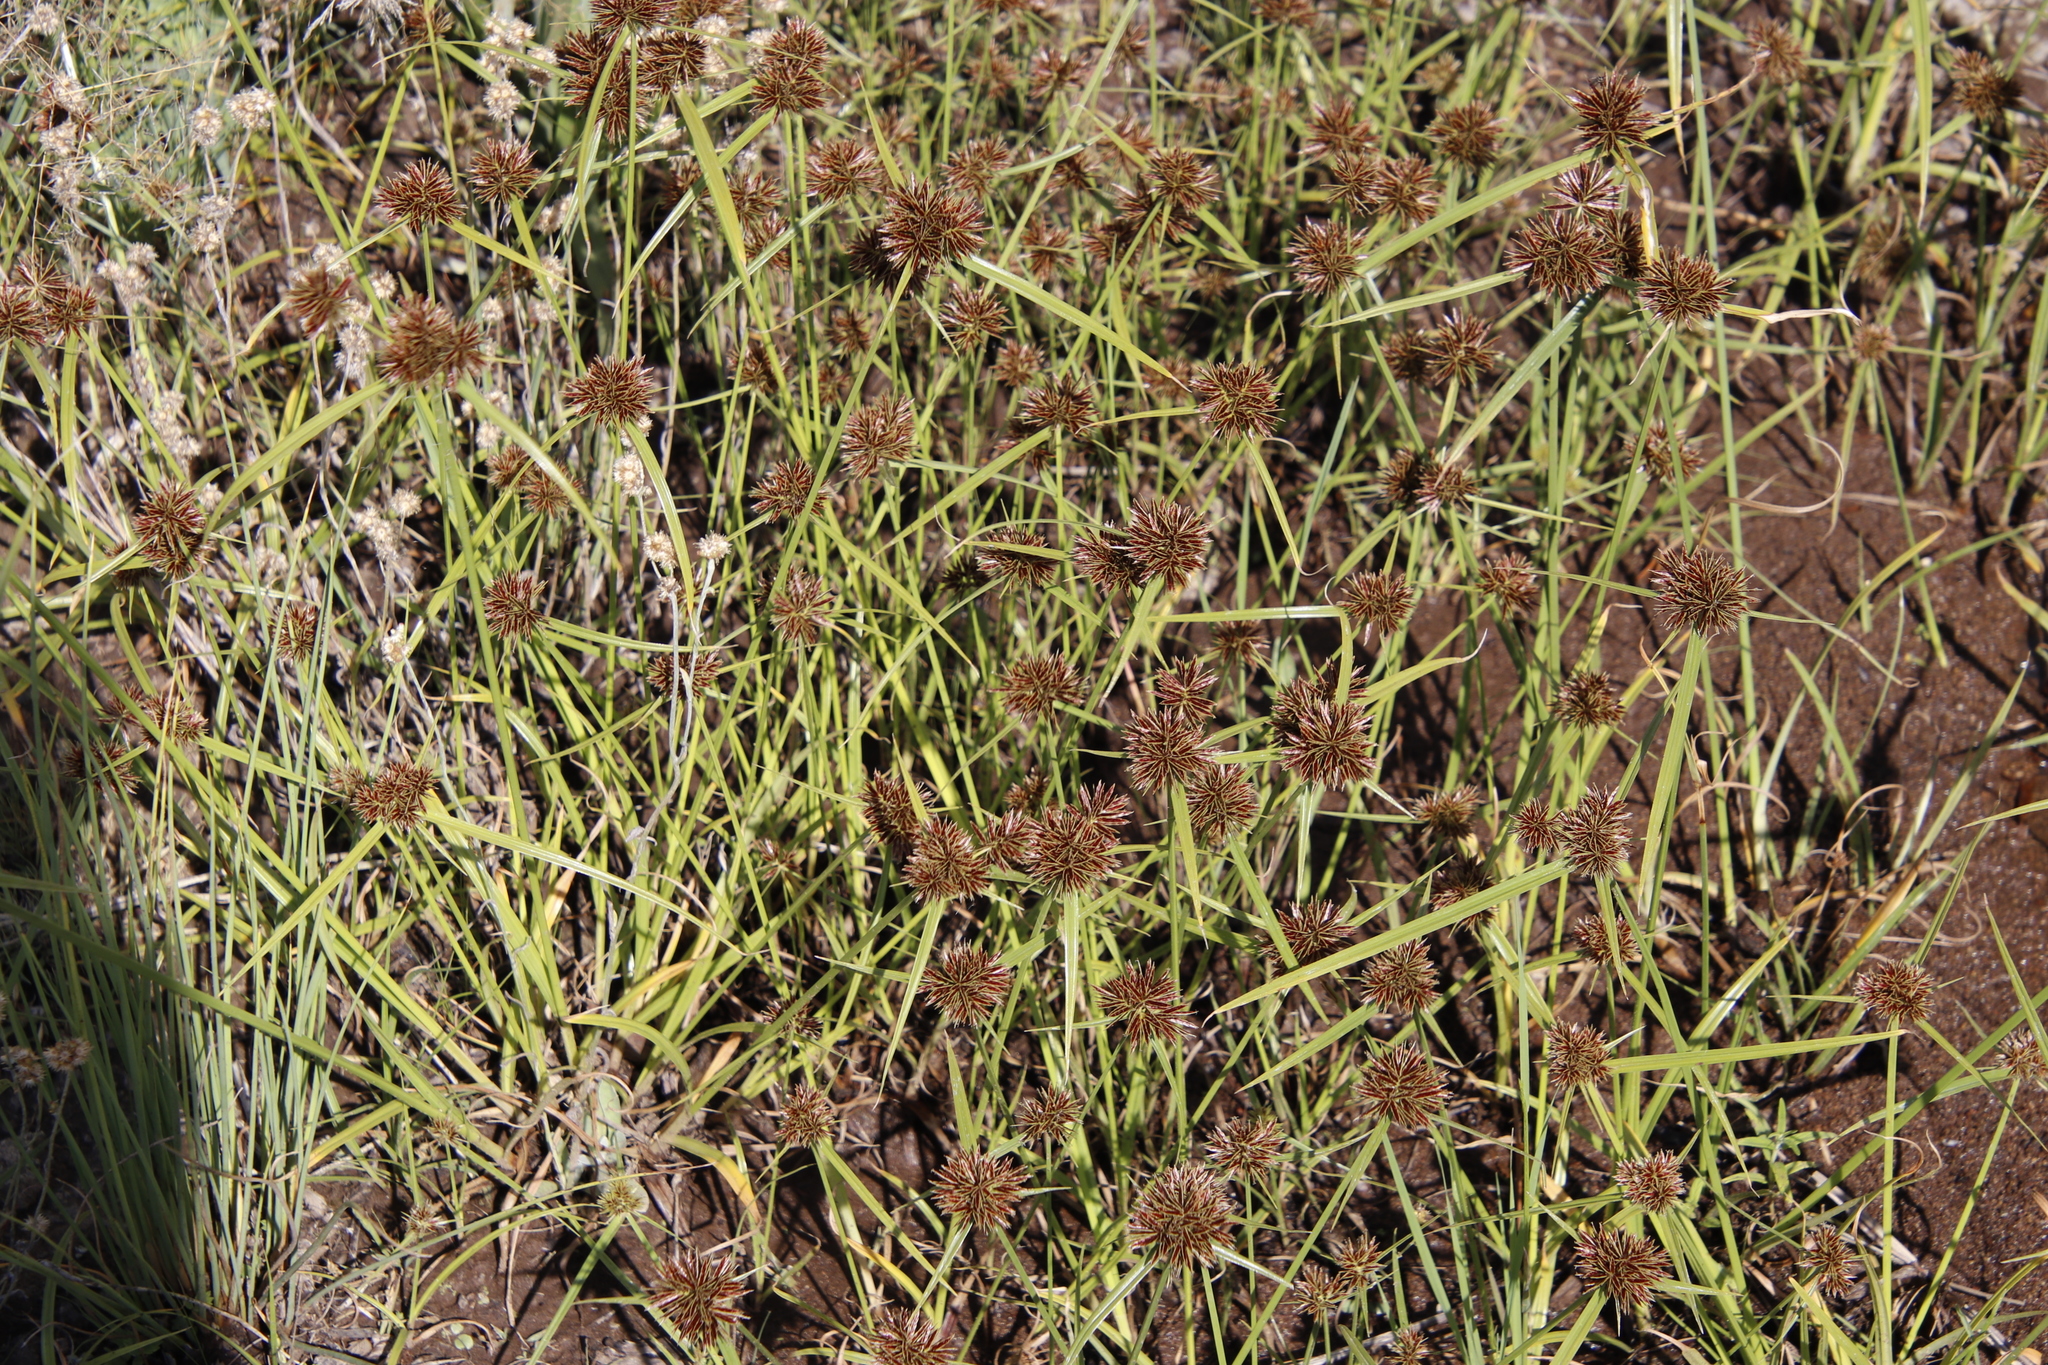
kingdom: Plantae
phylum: Tracheophyta
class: Liliopsida
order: Poales
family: Cyperaceae
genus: Cyperus
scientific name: Cyperus congestus
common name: Dense flat sedge
